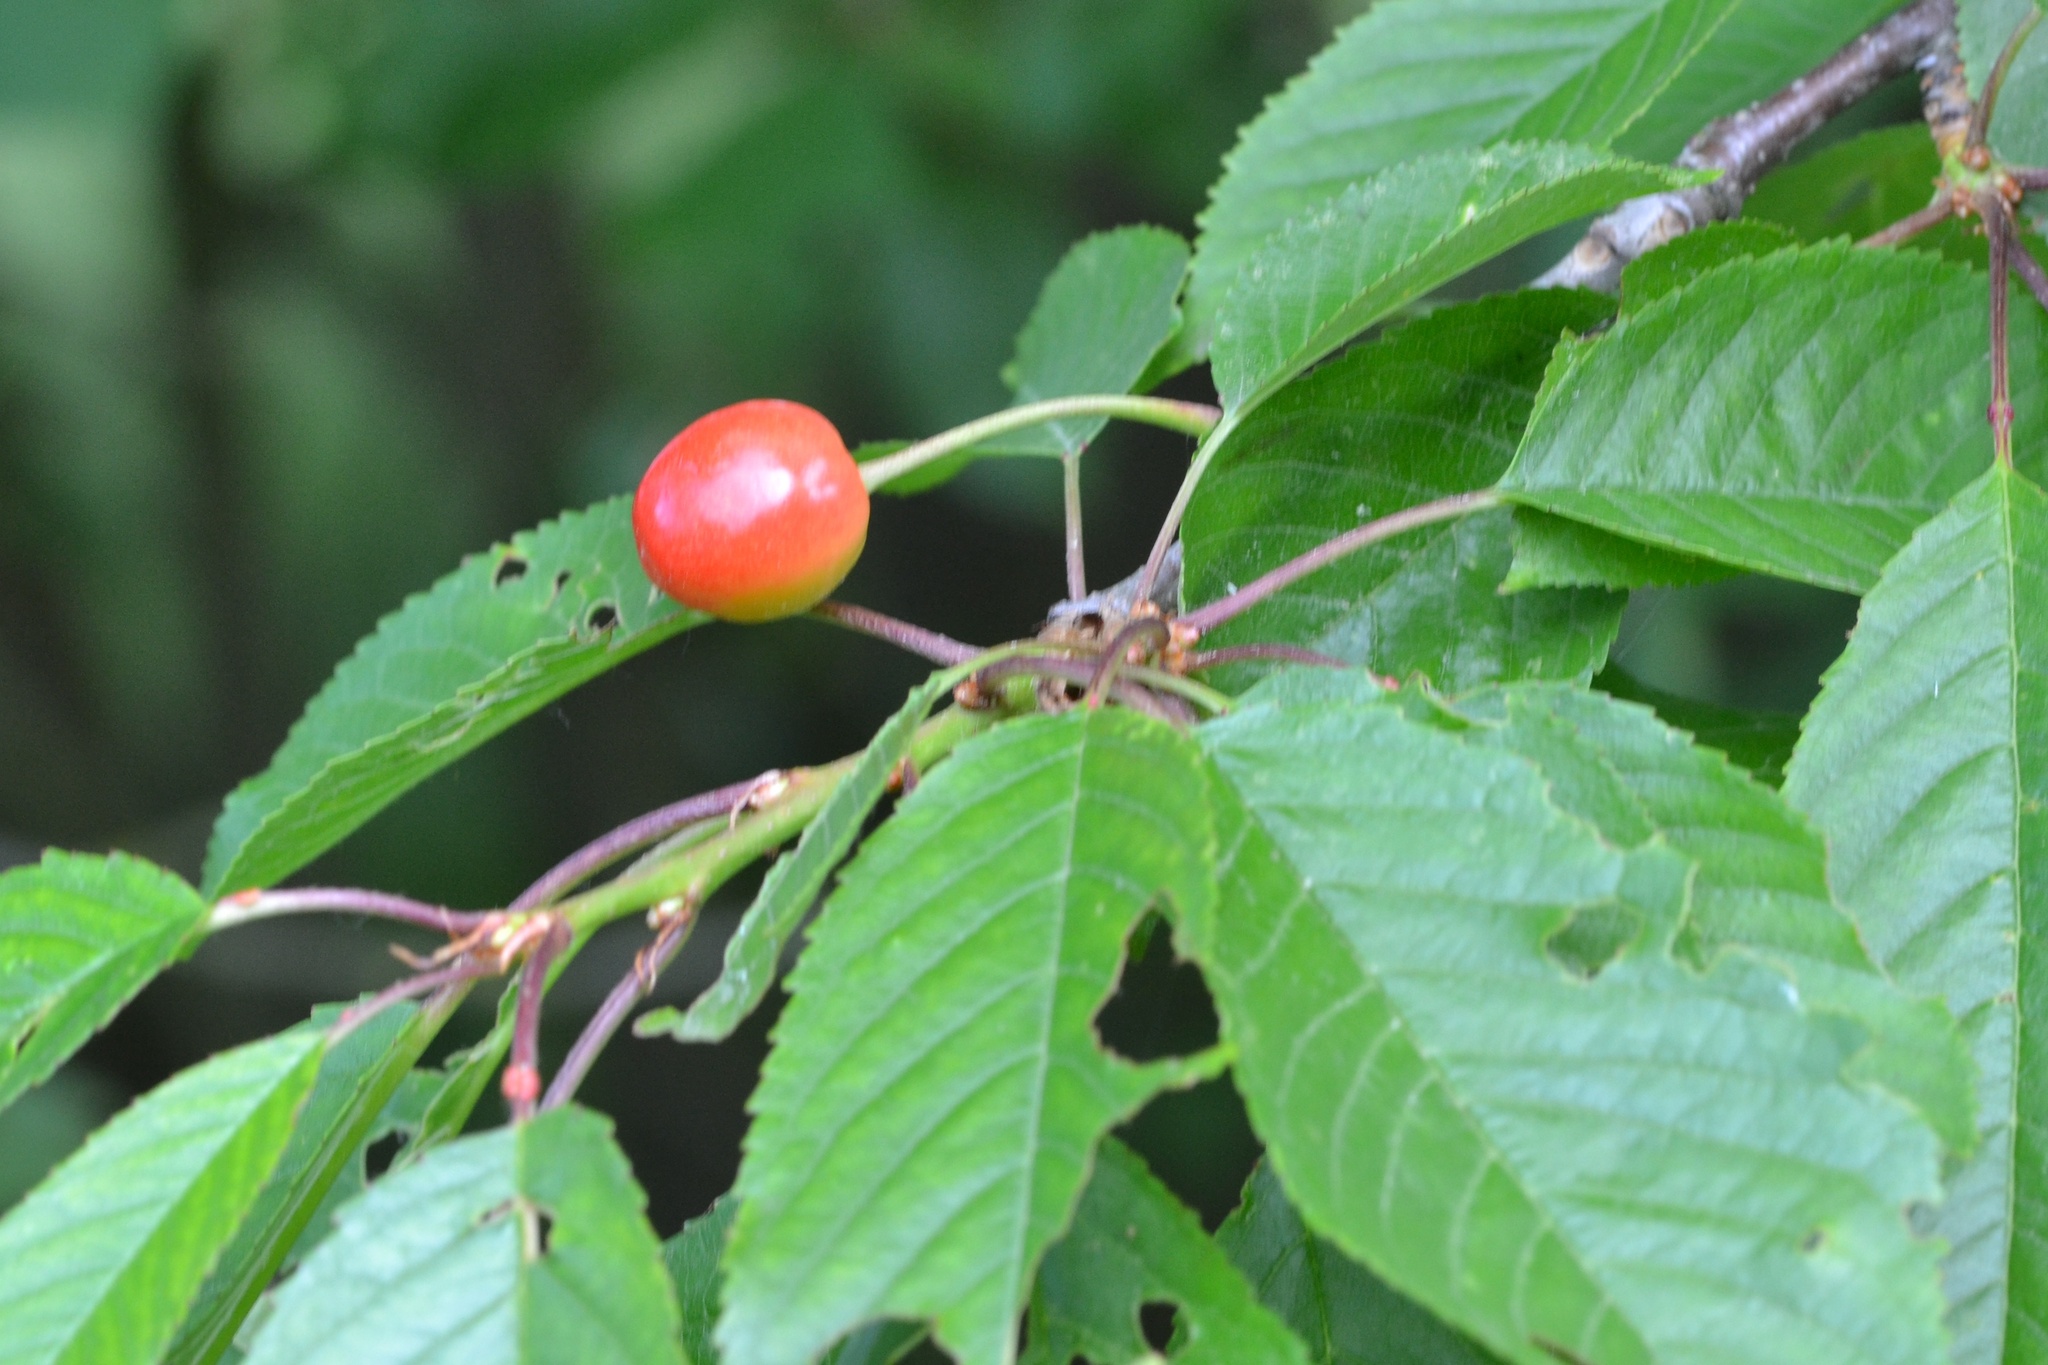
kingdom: Plantae
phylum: Tracheophyta
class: Magnoliopsida
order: Rosales
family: Rosaceae
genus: Prunus
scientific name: Prunus avium
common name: Sweet cherry
